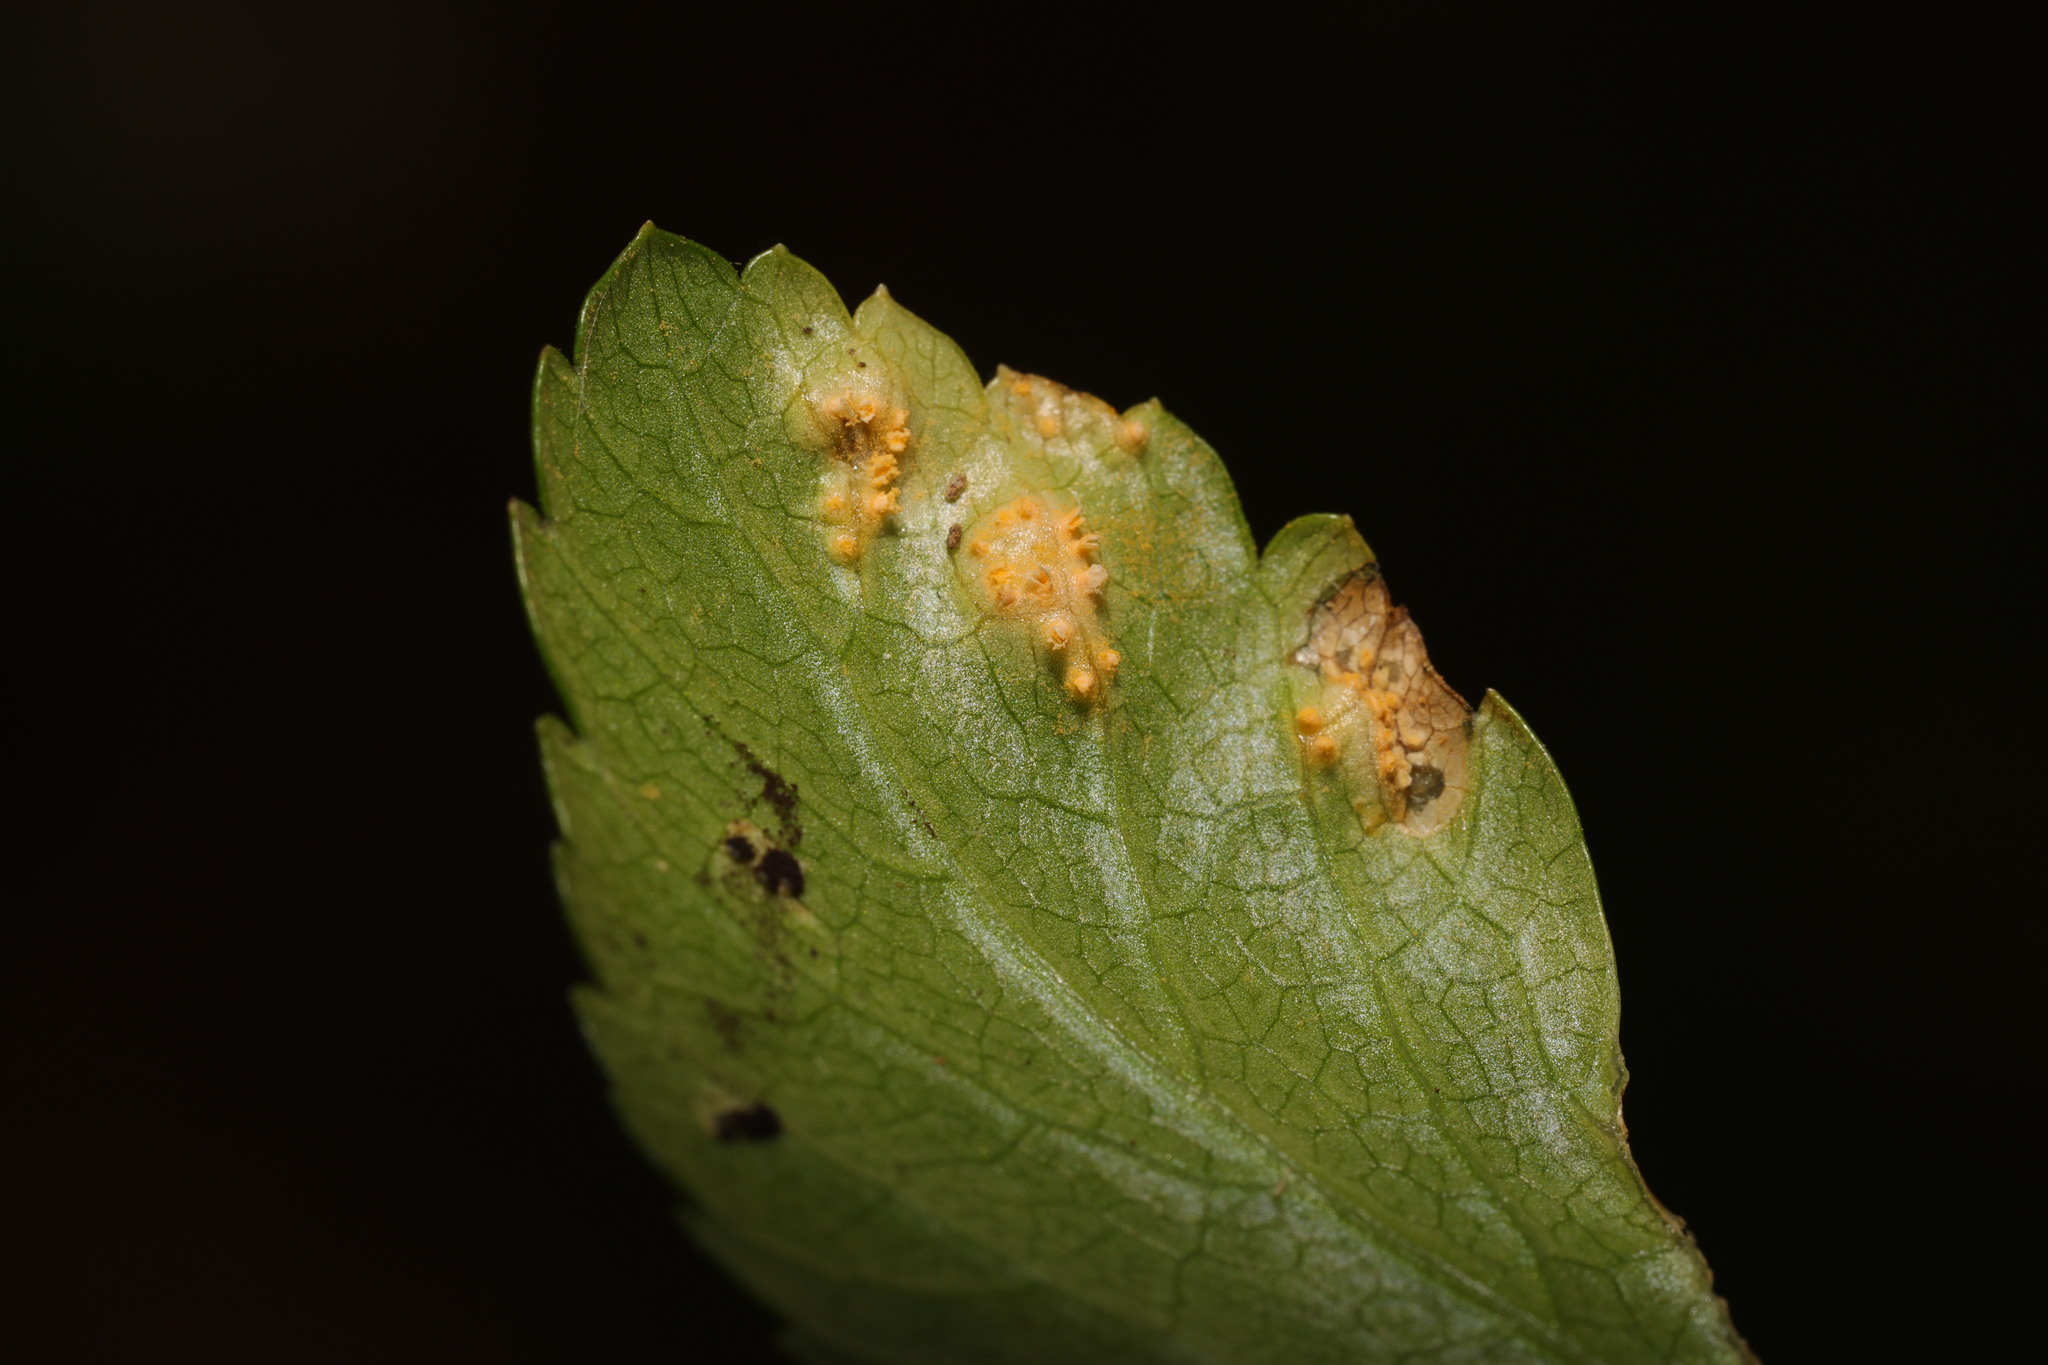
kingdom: Fungi
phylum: Basidiomycota
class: Pucciniomycetes
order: Pucciniales
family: Pucciniaceae
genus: Puccinia
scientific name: Puccinia smyrnii
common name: Alexanders rust
